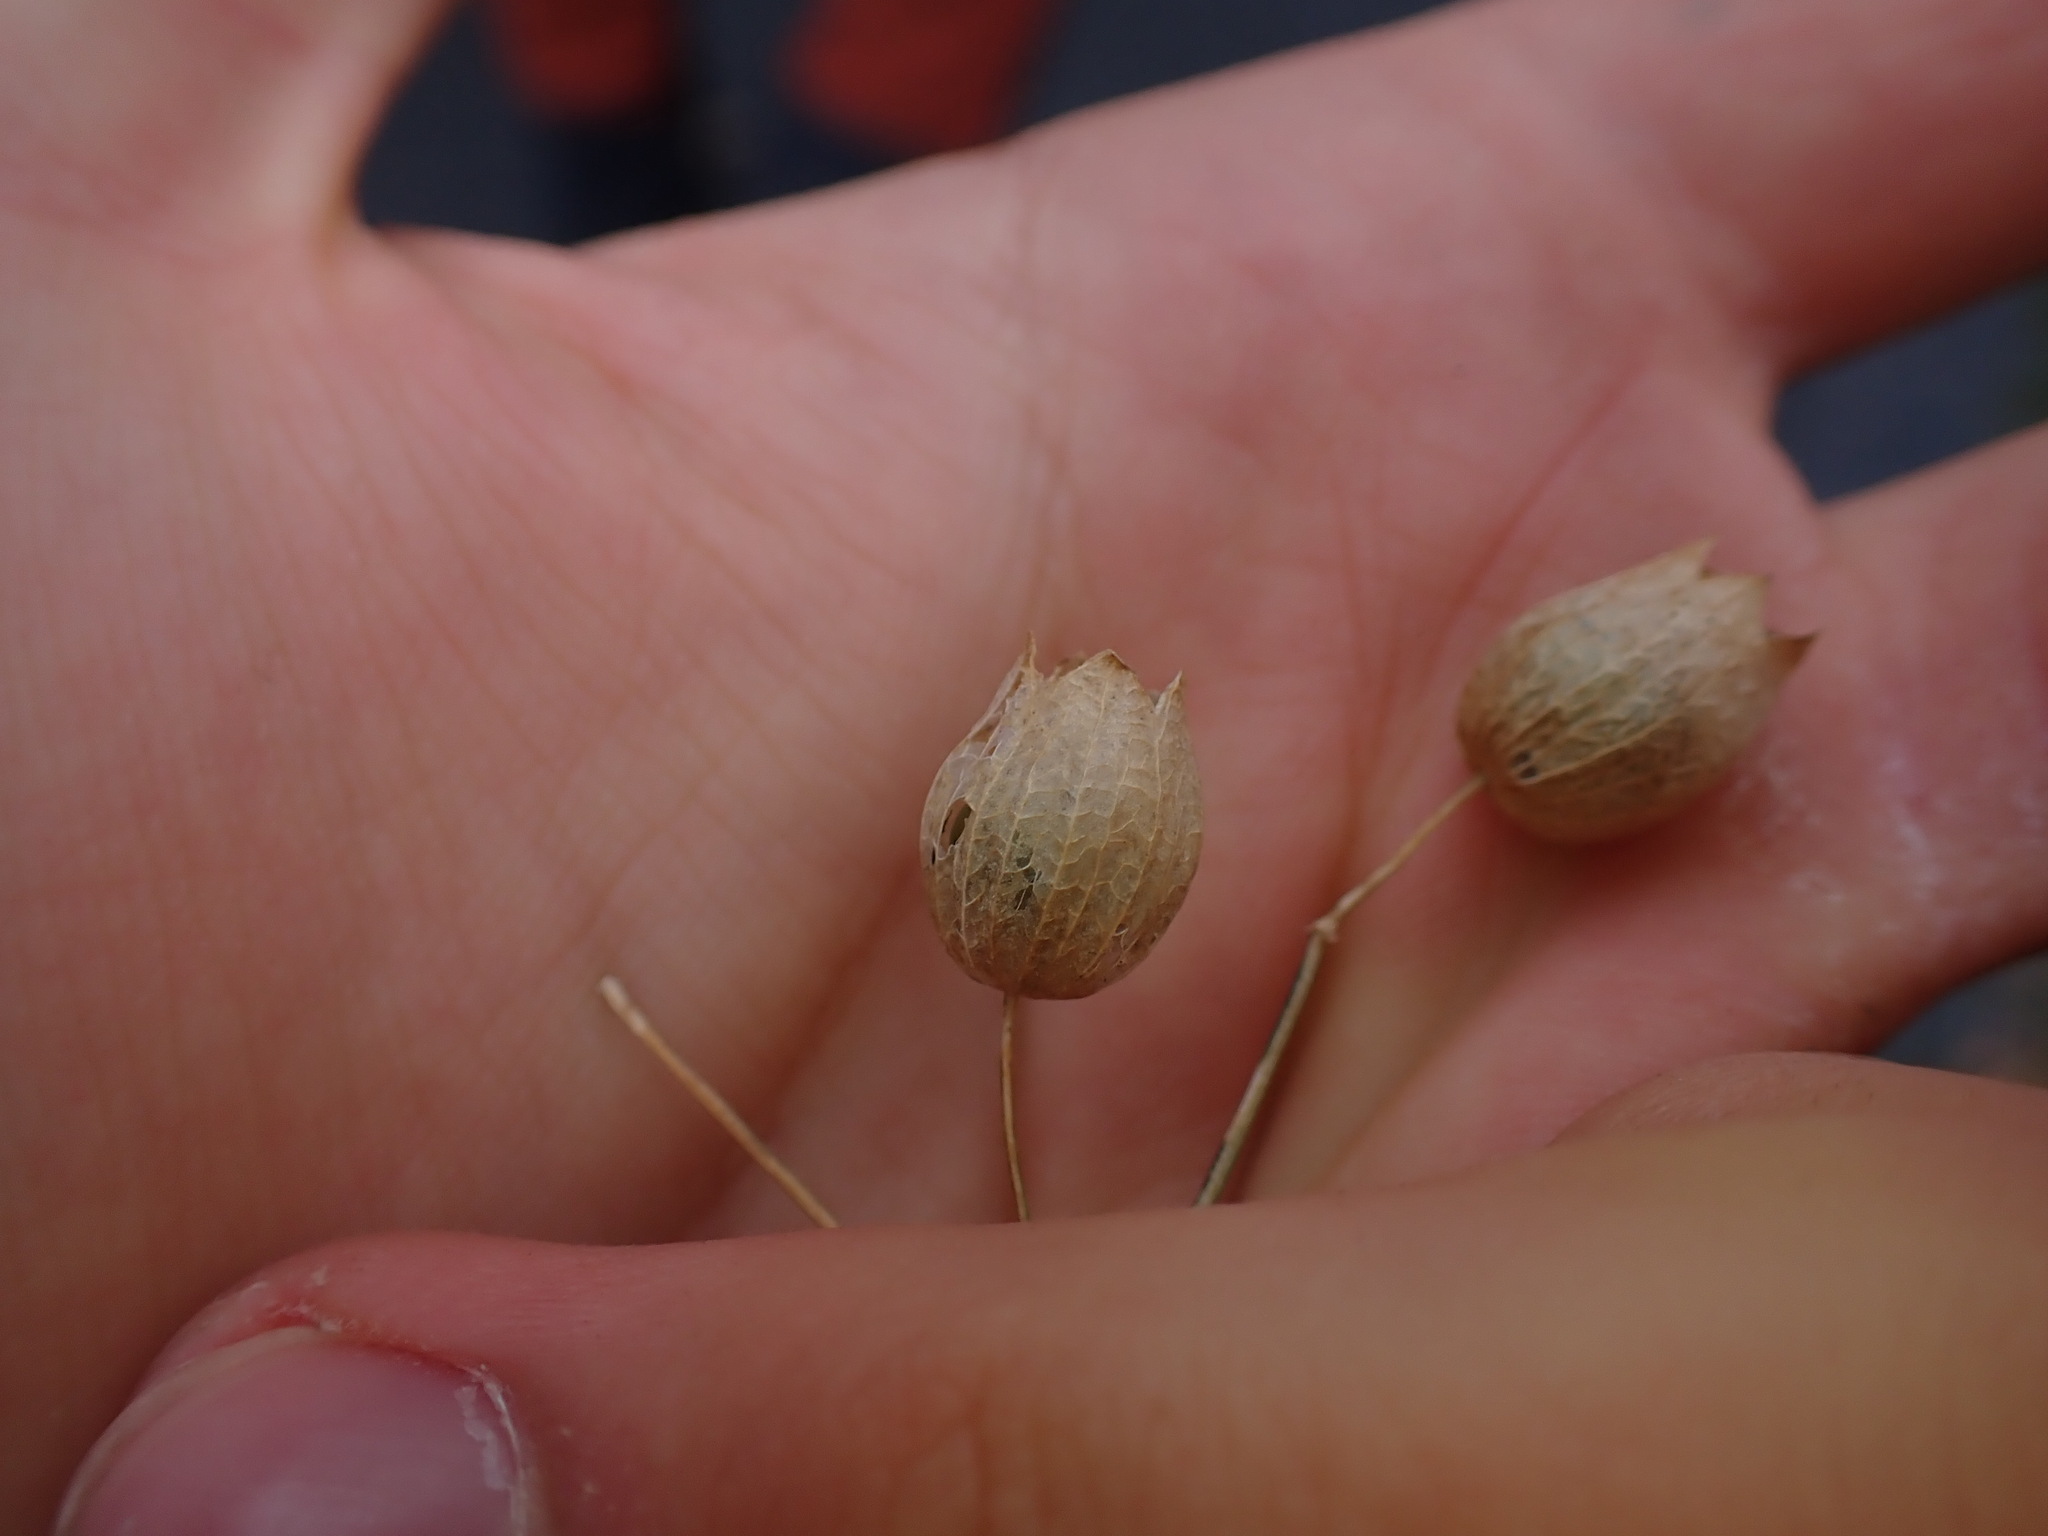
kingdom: Plantae
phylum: Tracheophyta
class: Magnoliopsida
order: Caryophyllales
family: Caryophyllaceae
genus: Silene
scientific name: Silene vulgaris
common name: Bladder campion
